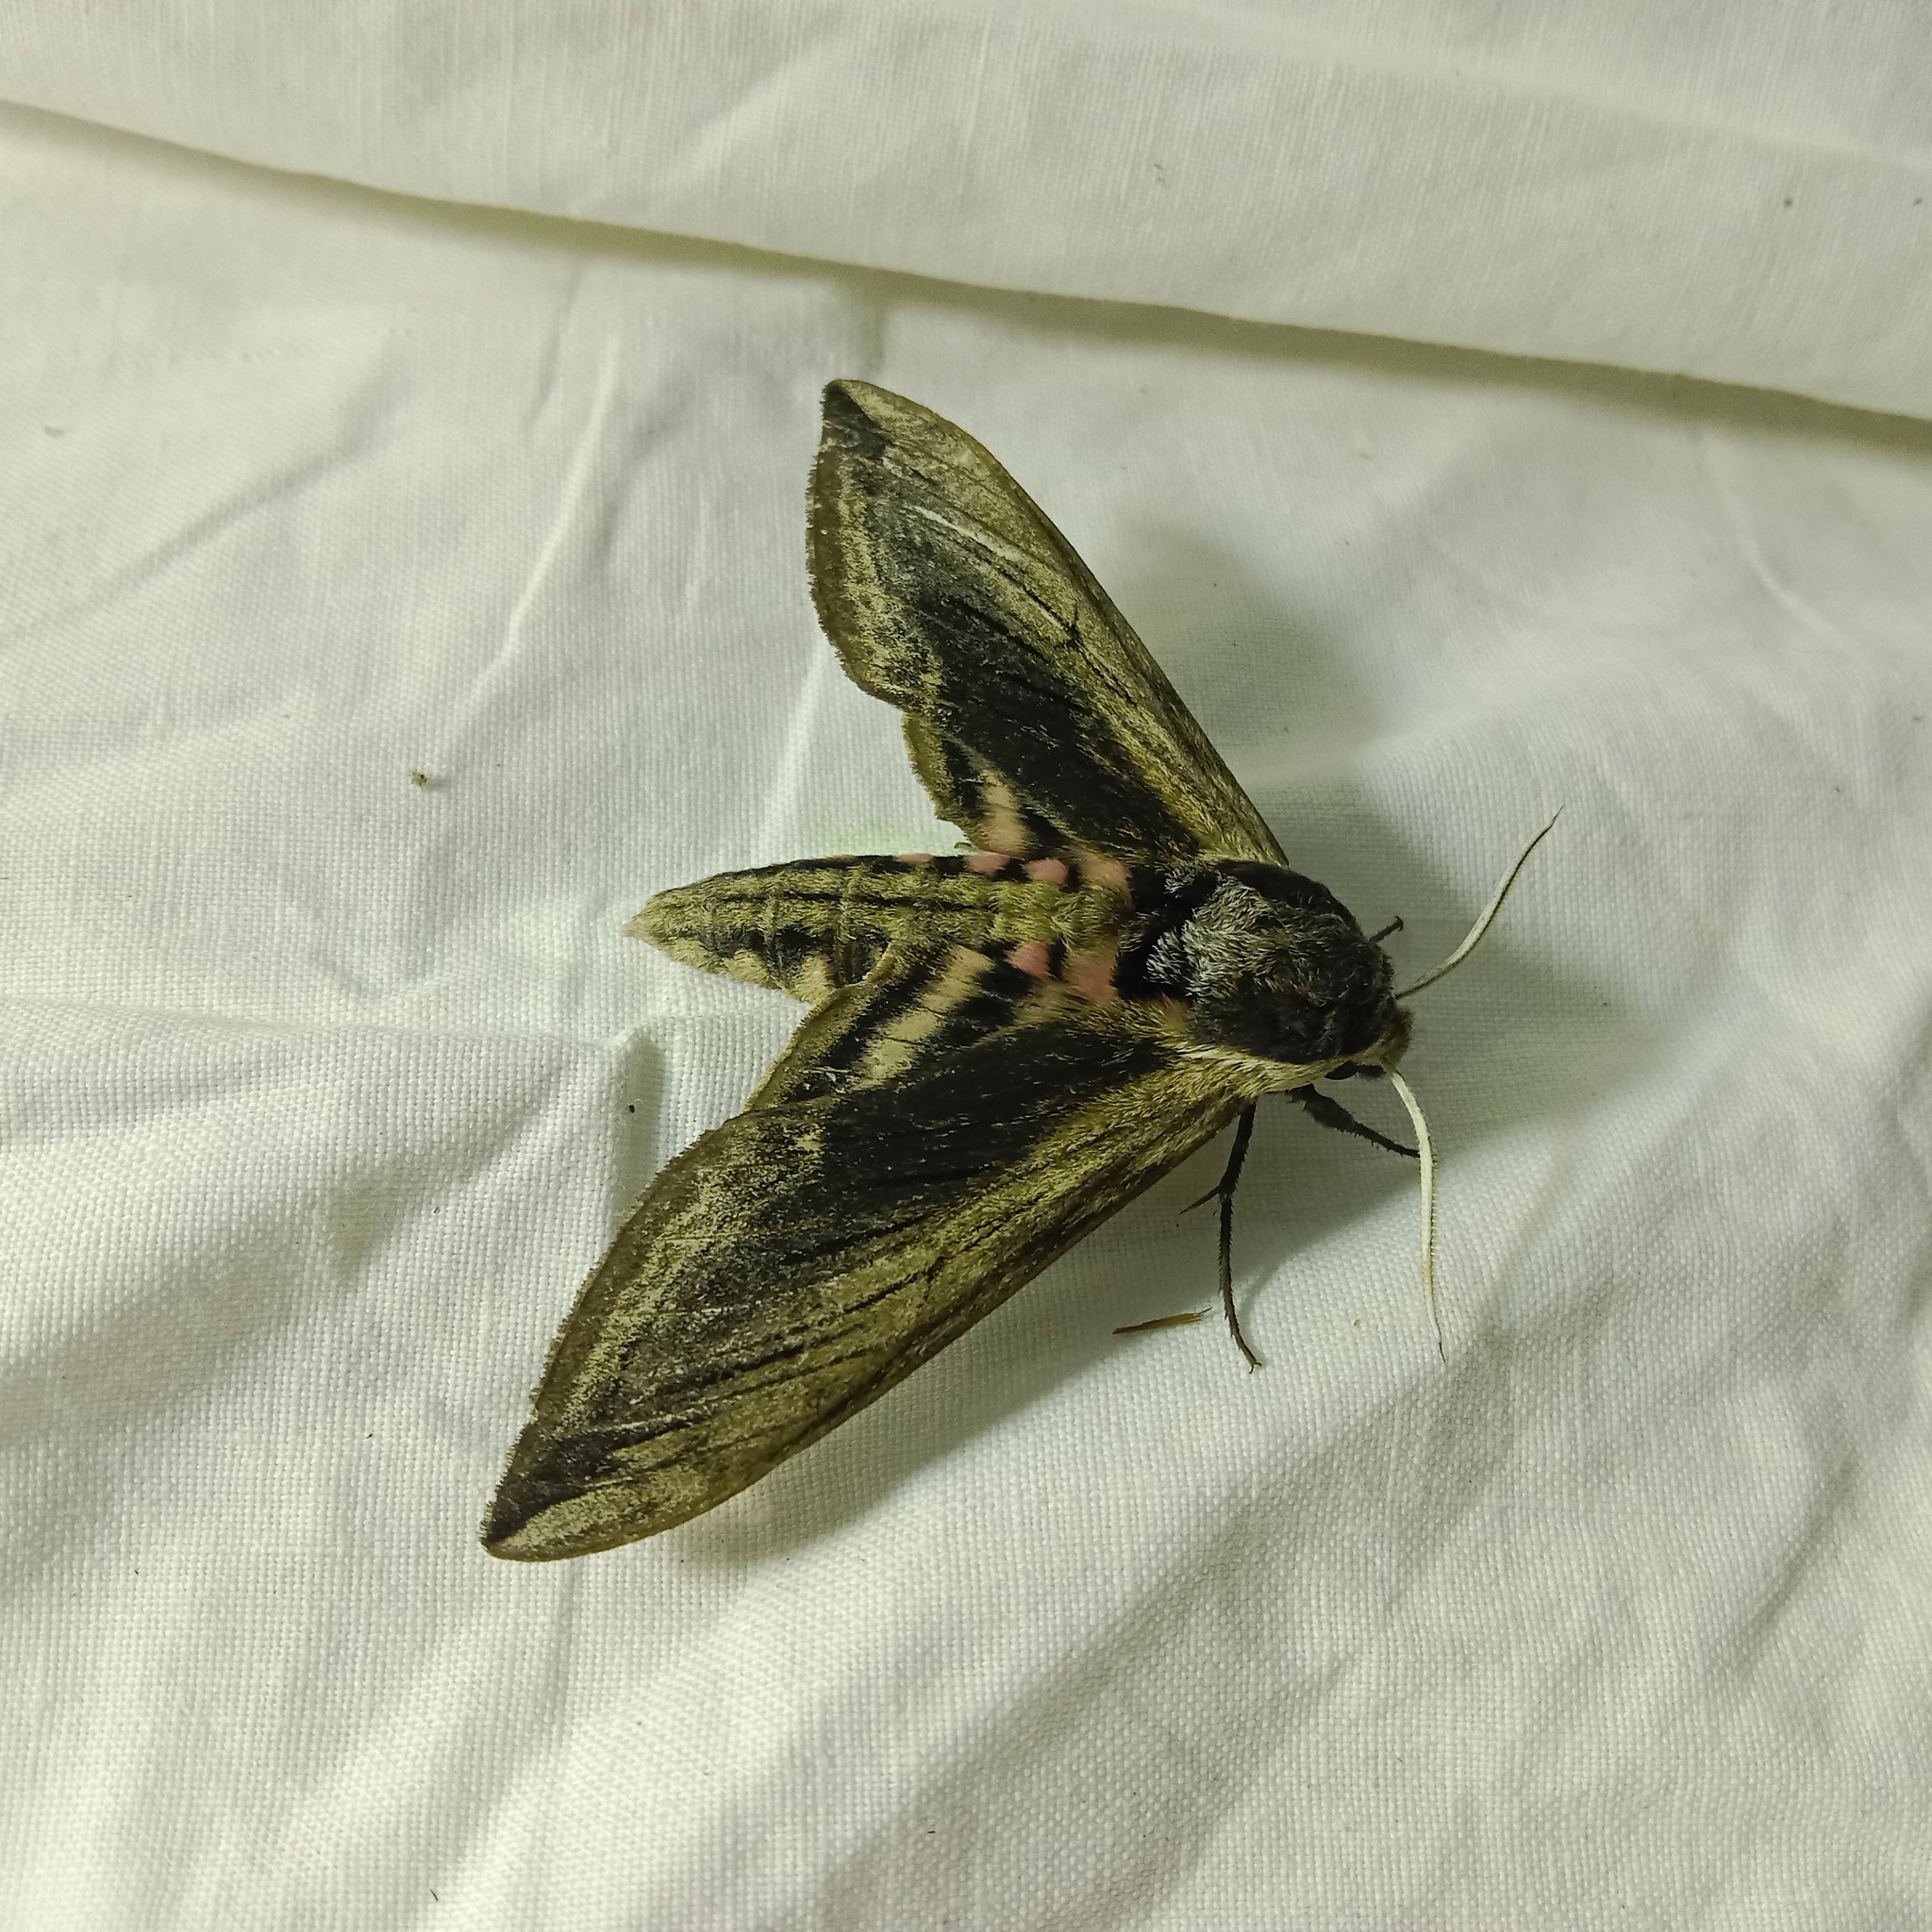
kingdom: Animalia
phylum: Arthropoda
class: Insecta
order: Lepidoptera
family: Sphingidae
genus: Sphinx
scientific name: Sphinx ligustri
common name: Privet hawk-moth
